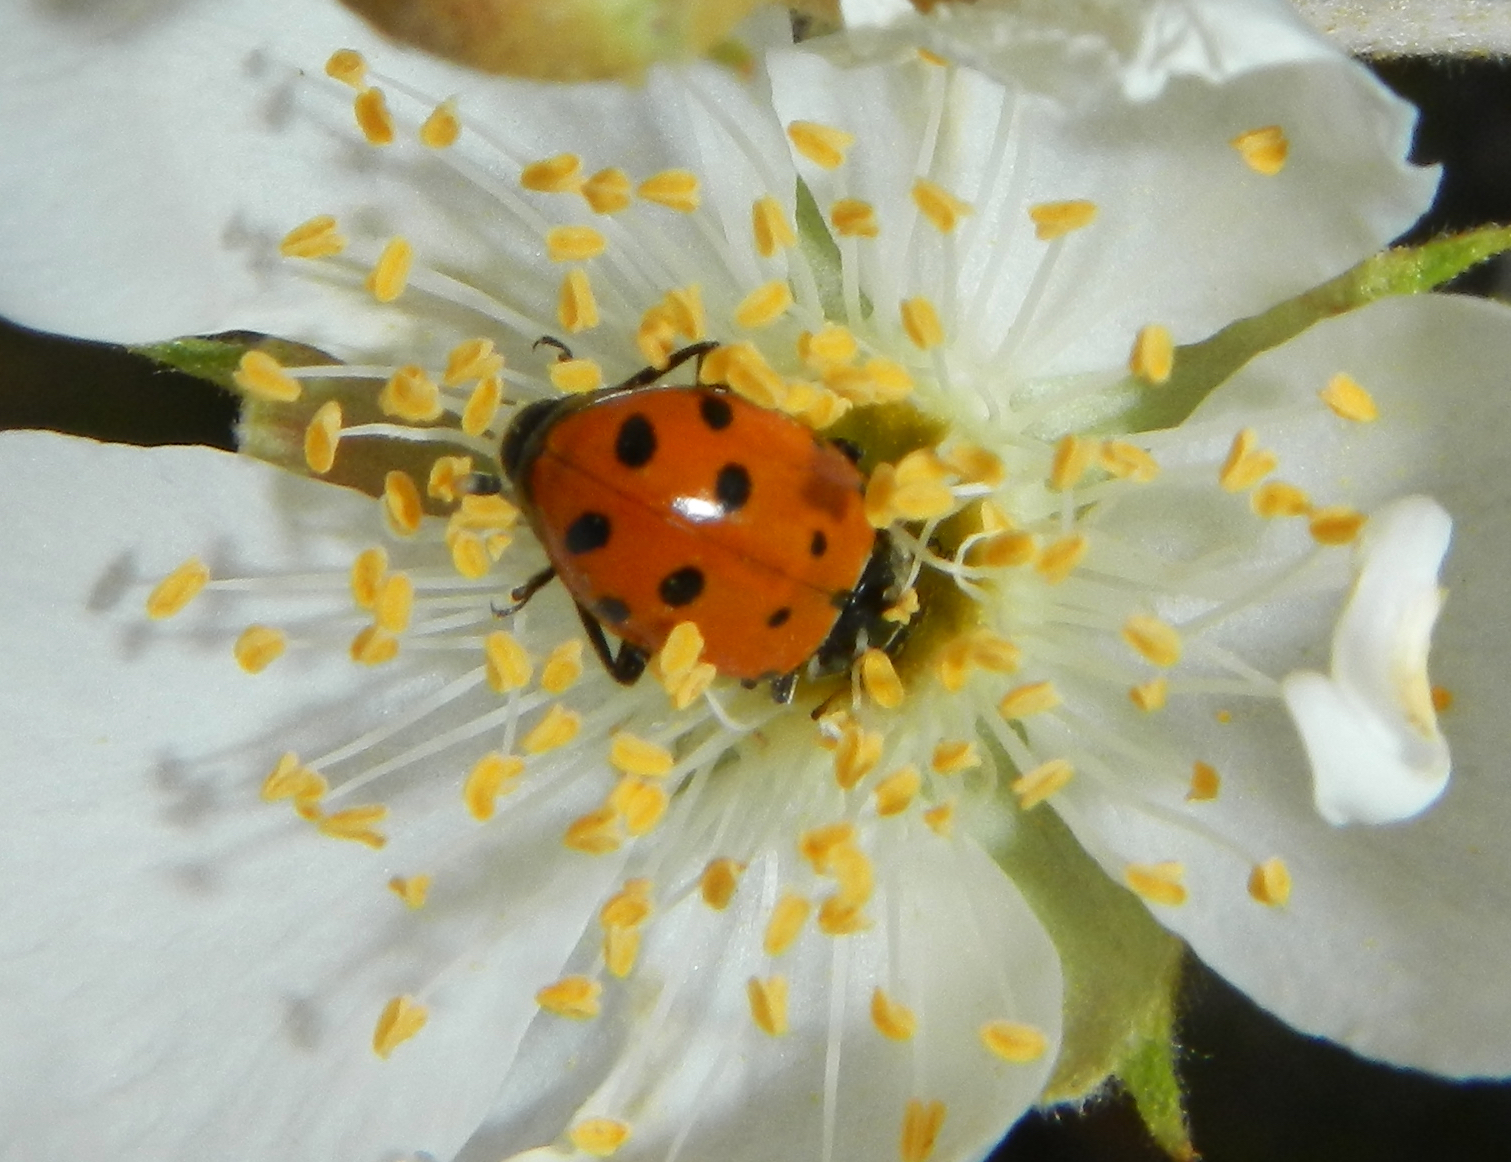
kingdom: Animalia
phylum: Arthropoda
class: Insecta
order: Coleoptera
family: Coccinellidae
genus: Hippodamia
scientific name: Hippodamia convergens
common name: Convergent lady beetle
